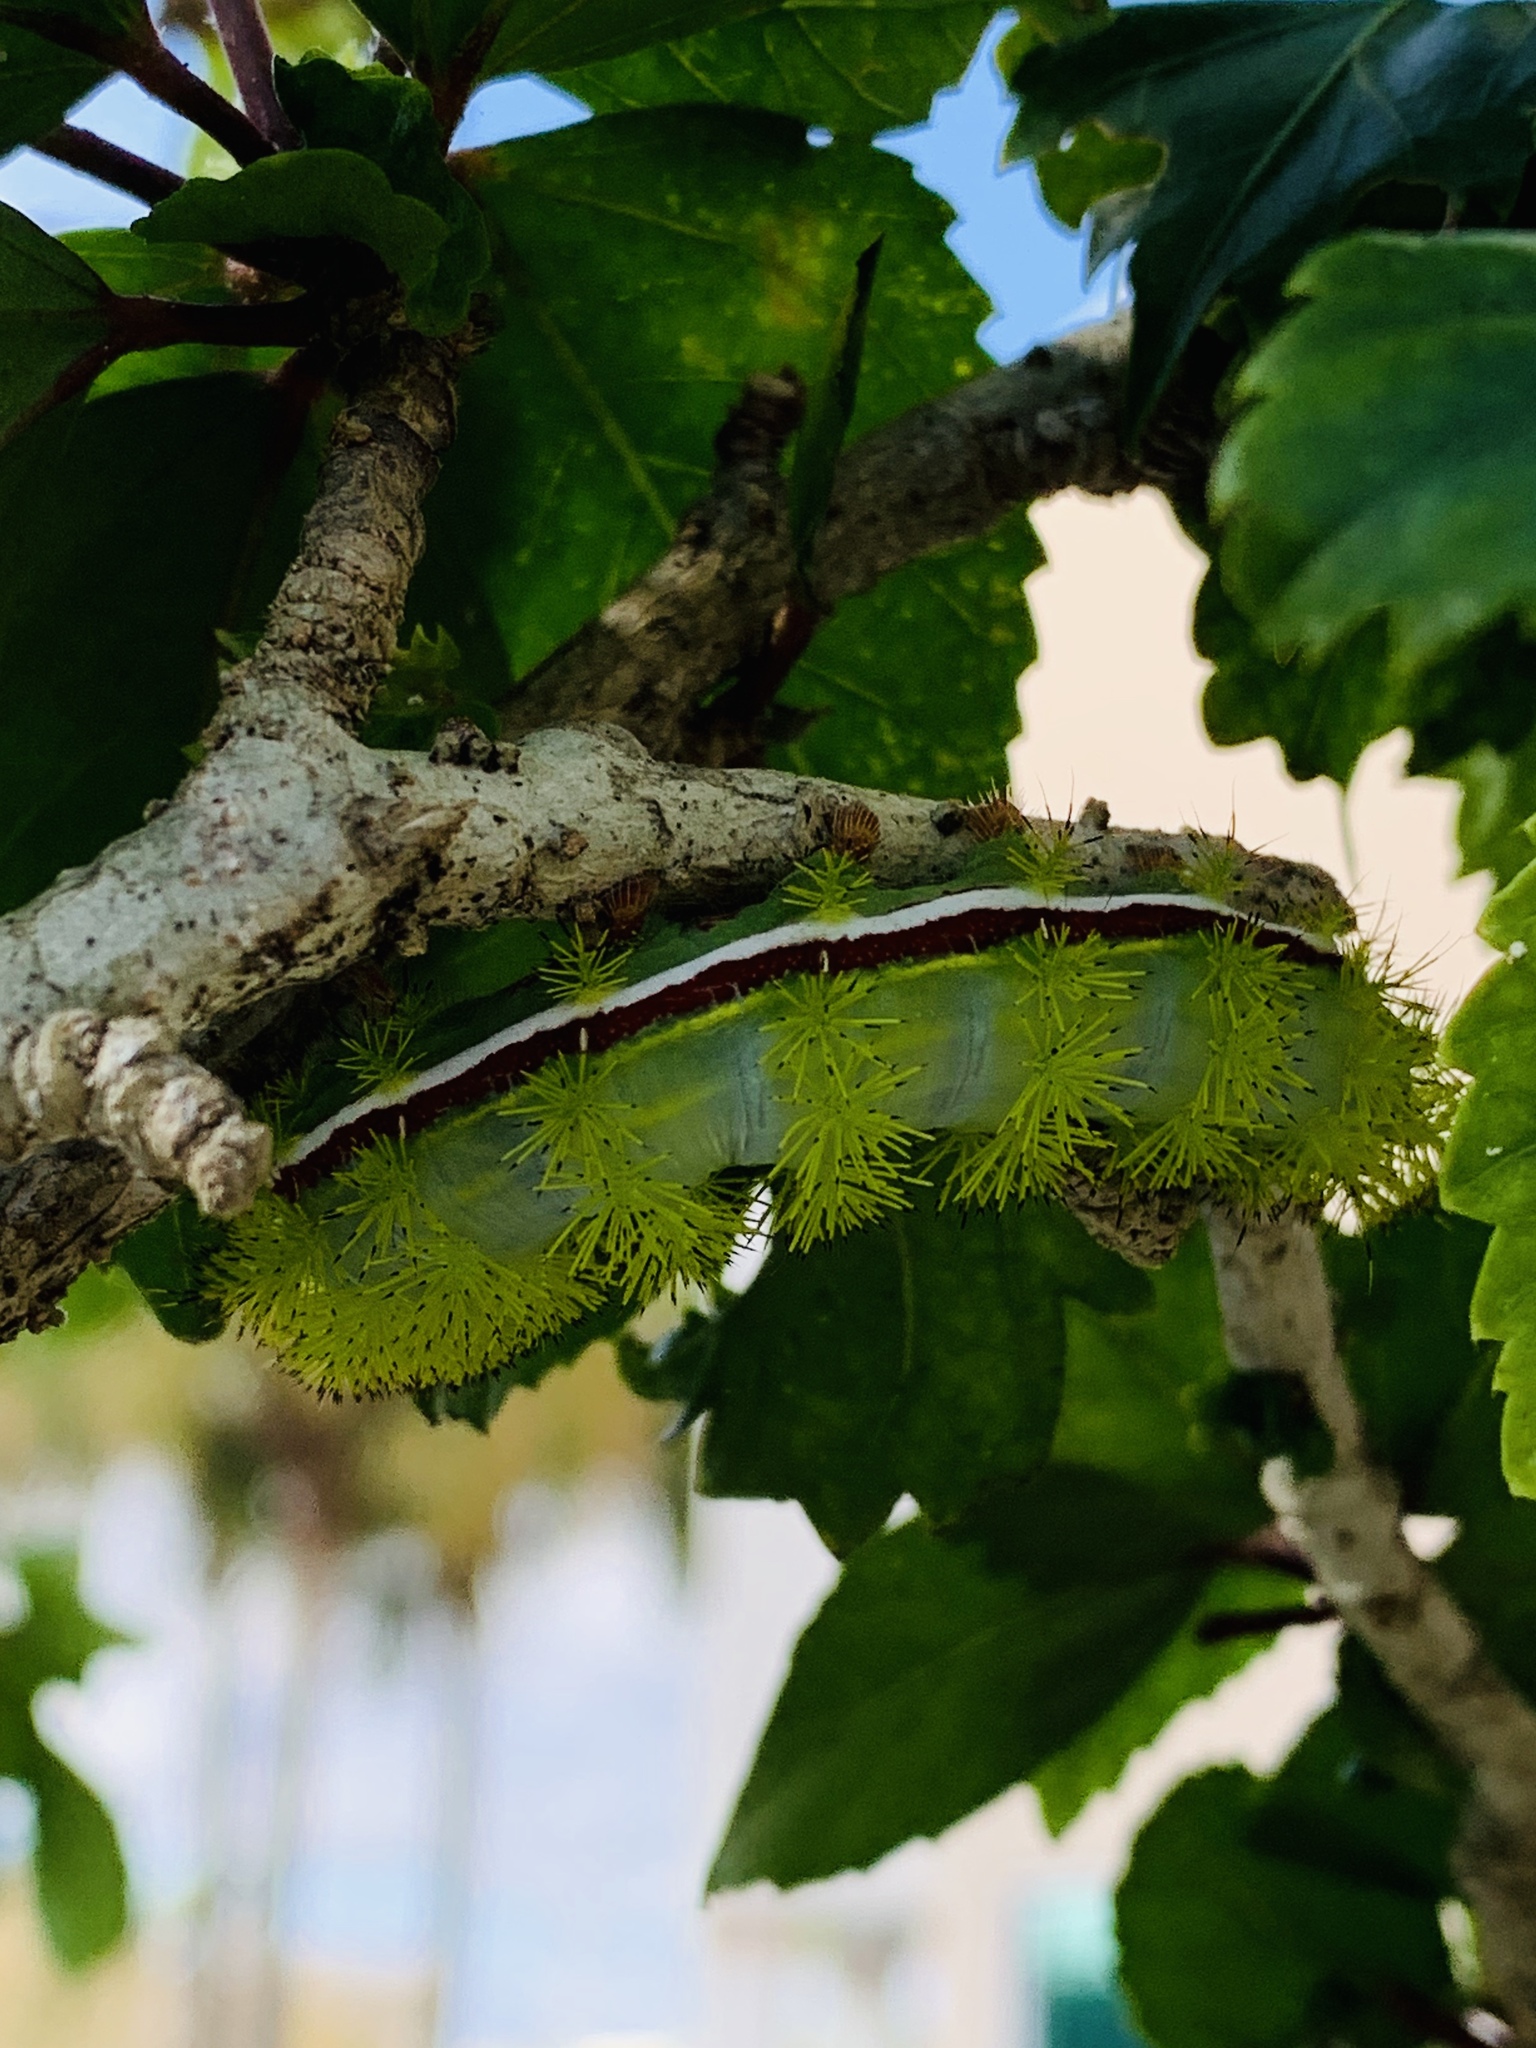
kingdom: Animalia
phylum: Arthropoda
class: Insecta
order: Lepidoptera
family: Saturniidae
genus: Automeris
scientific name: Automeris io
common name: Io moth
